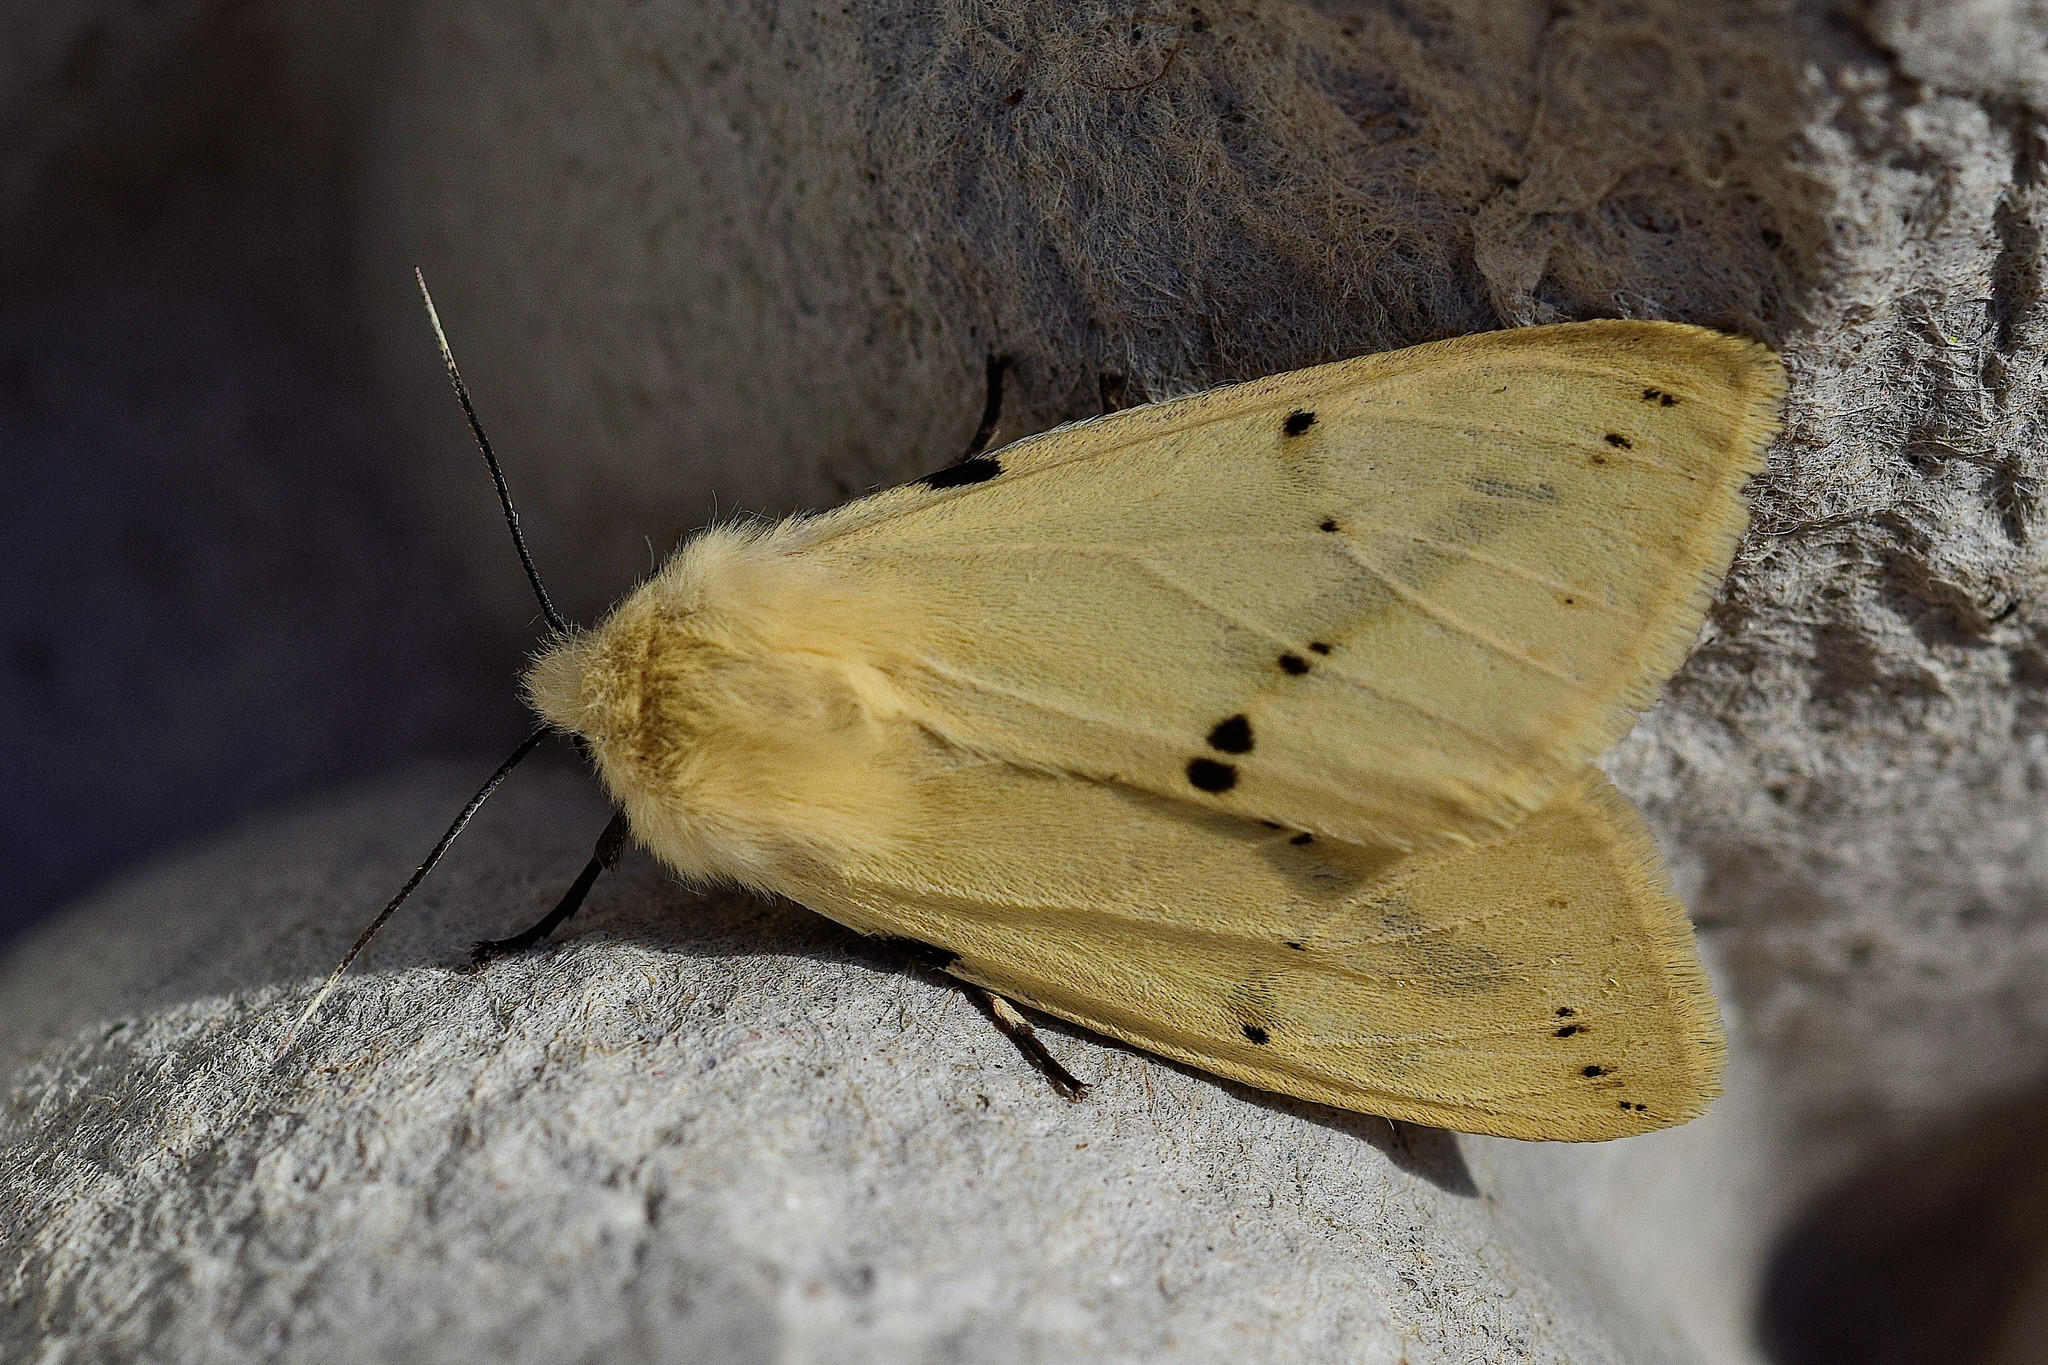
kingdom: Animalia
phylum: Arthropoda
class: Insecta
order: Lepidoptera
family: Erebidae
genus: Spilarctia
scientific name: Spilarctia lutea
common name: Buff ermine
